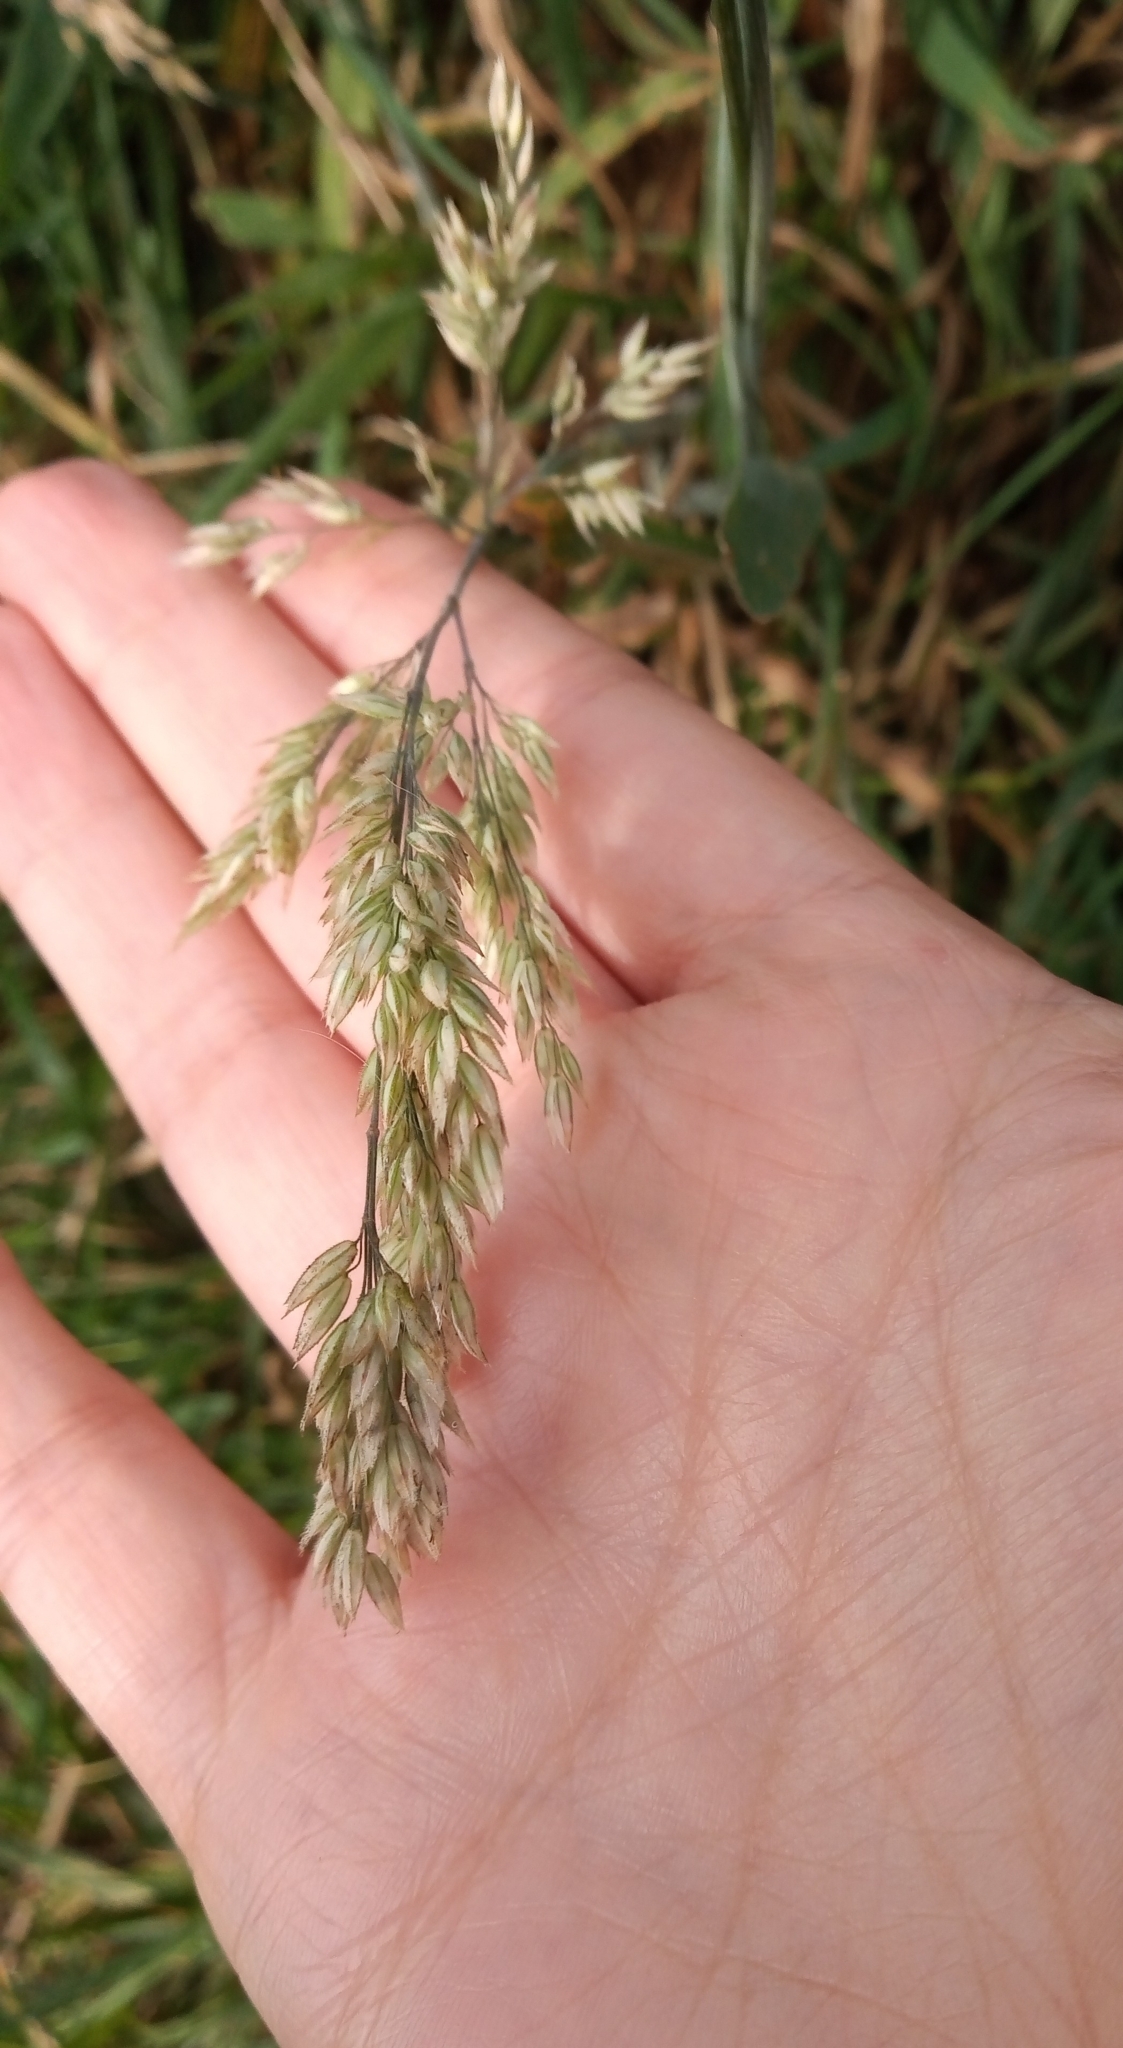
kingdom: Plantae
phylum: Tracheophyta
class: Liliopsida
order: Poales
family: Poaceae
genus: Holcus
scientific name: Holcus lanatus
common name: Yorkshire-fog
